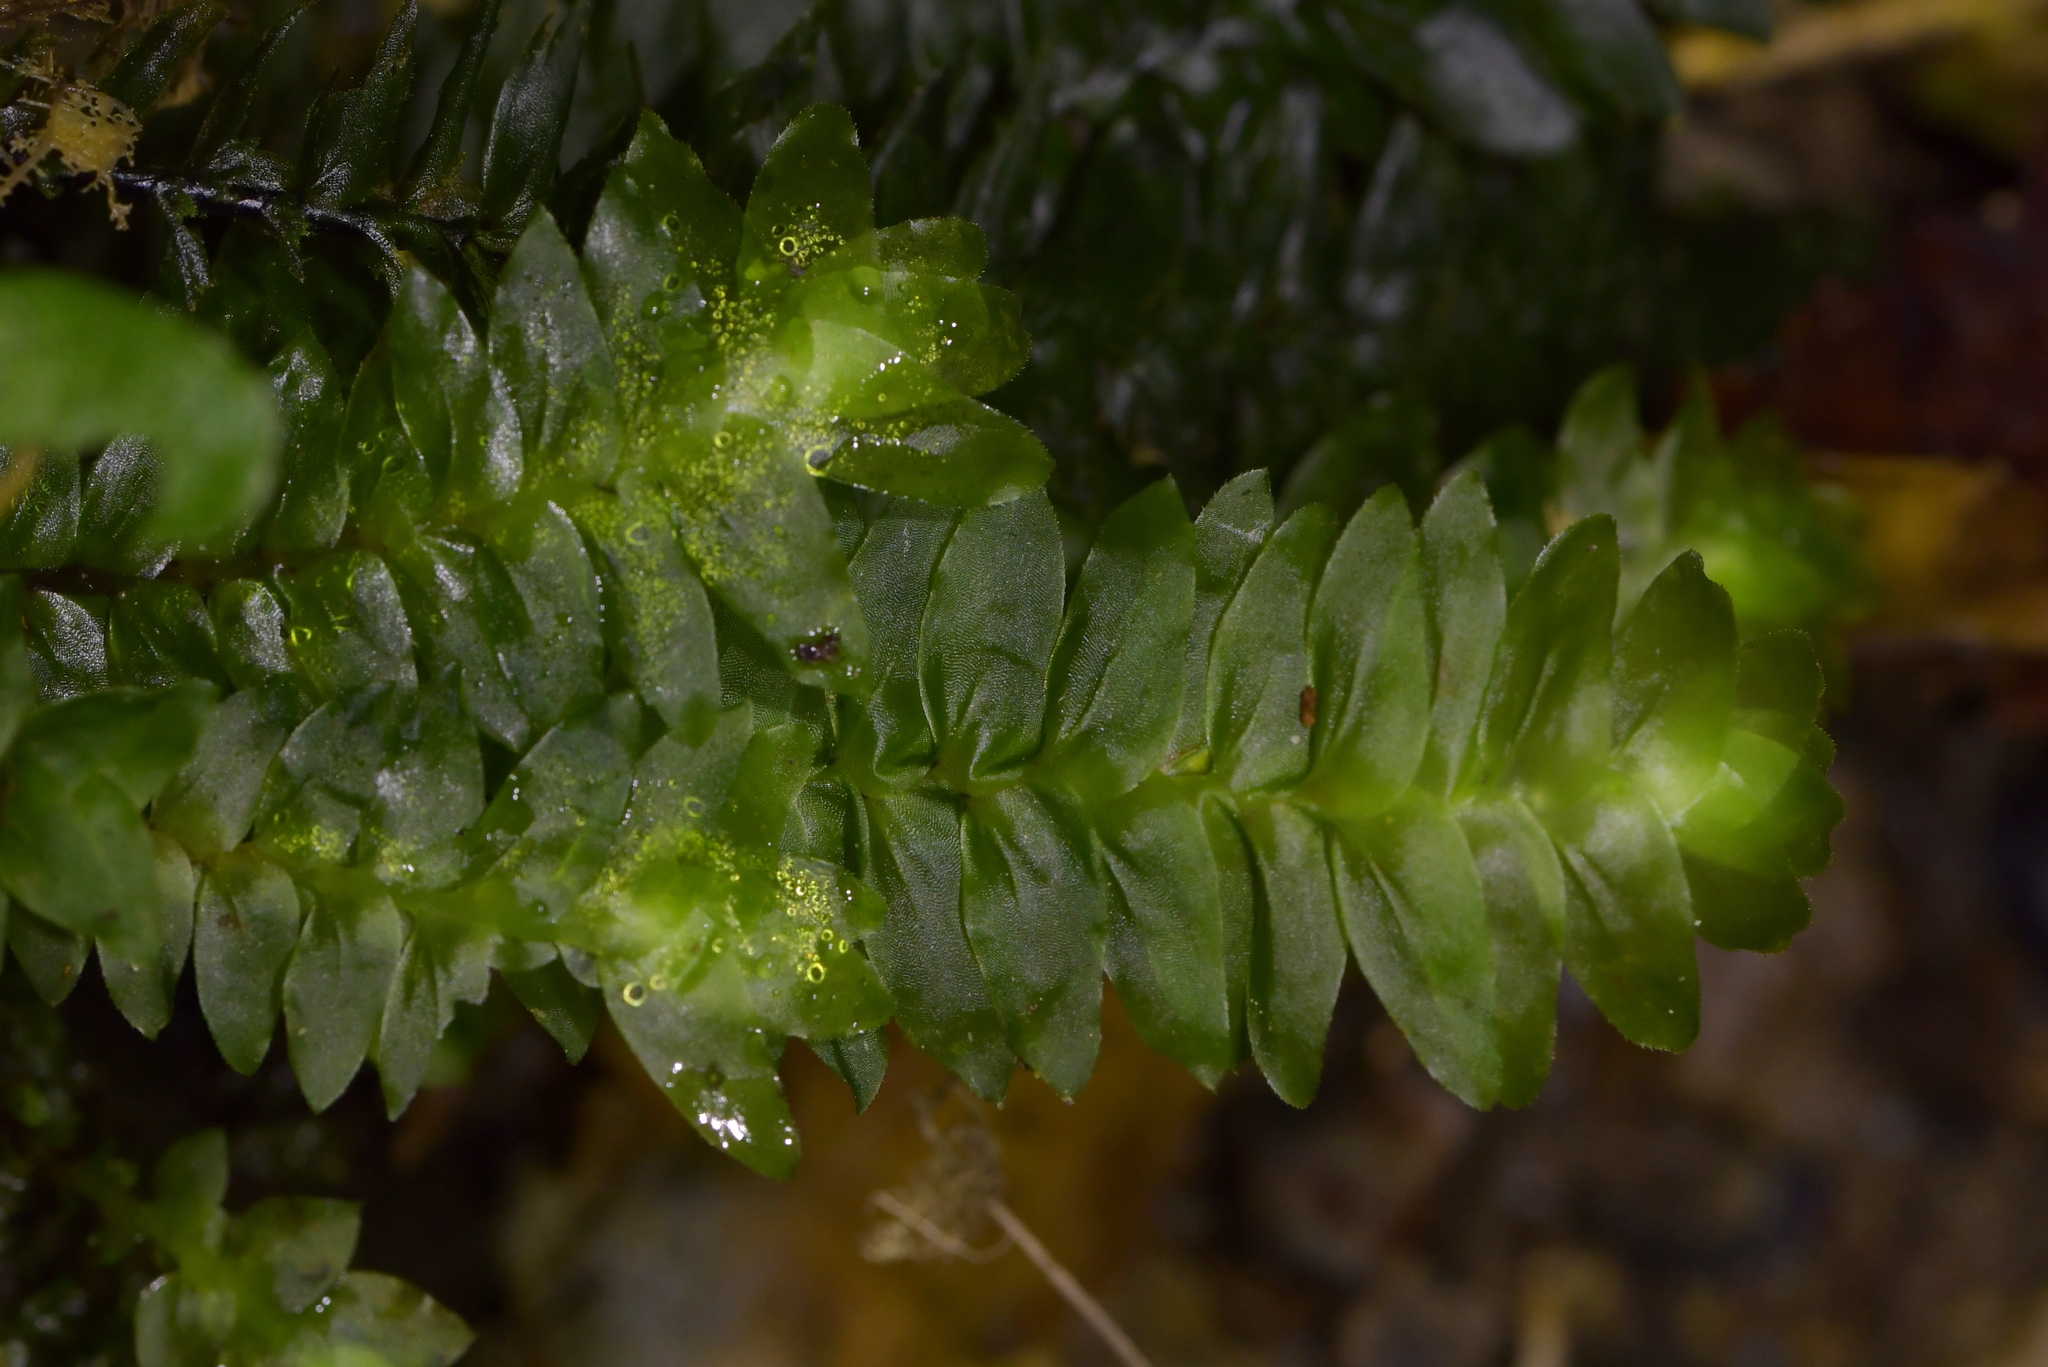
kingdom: Plantae
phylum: Bryophyta
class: Bryopsida
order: Hypopterygiales
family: Hypopterygiaceae
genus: Cyathophorum
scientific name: Cyathophorum bulbosum
